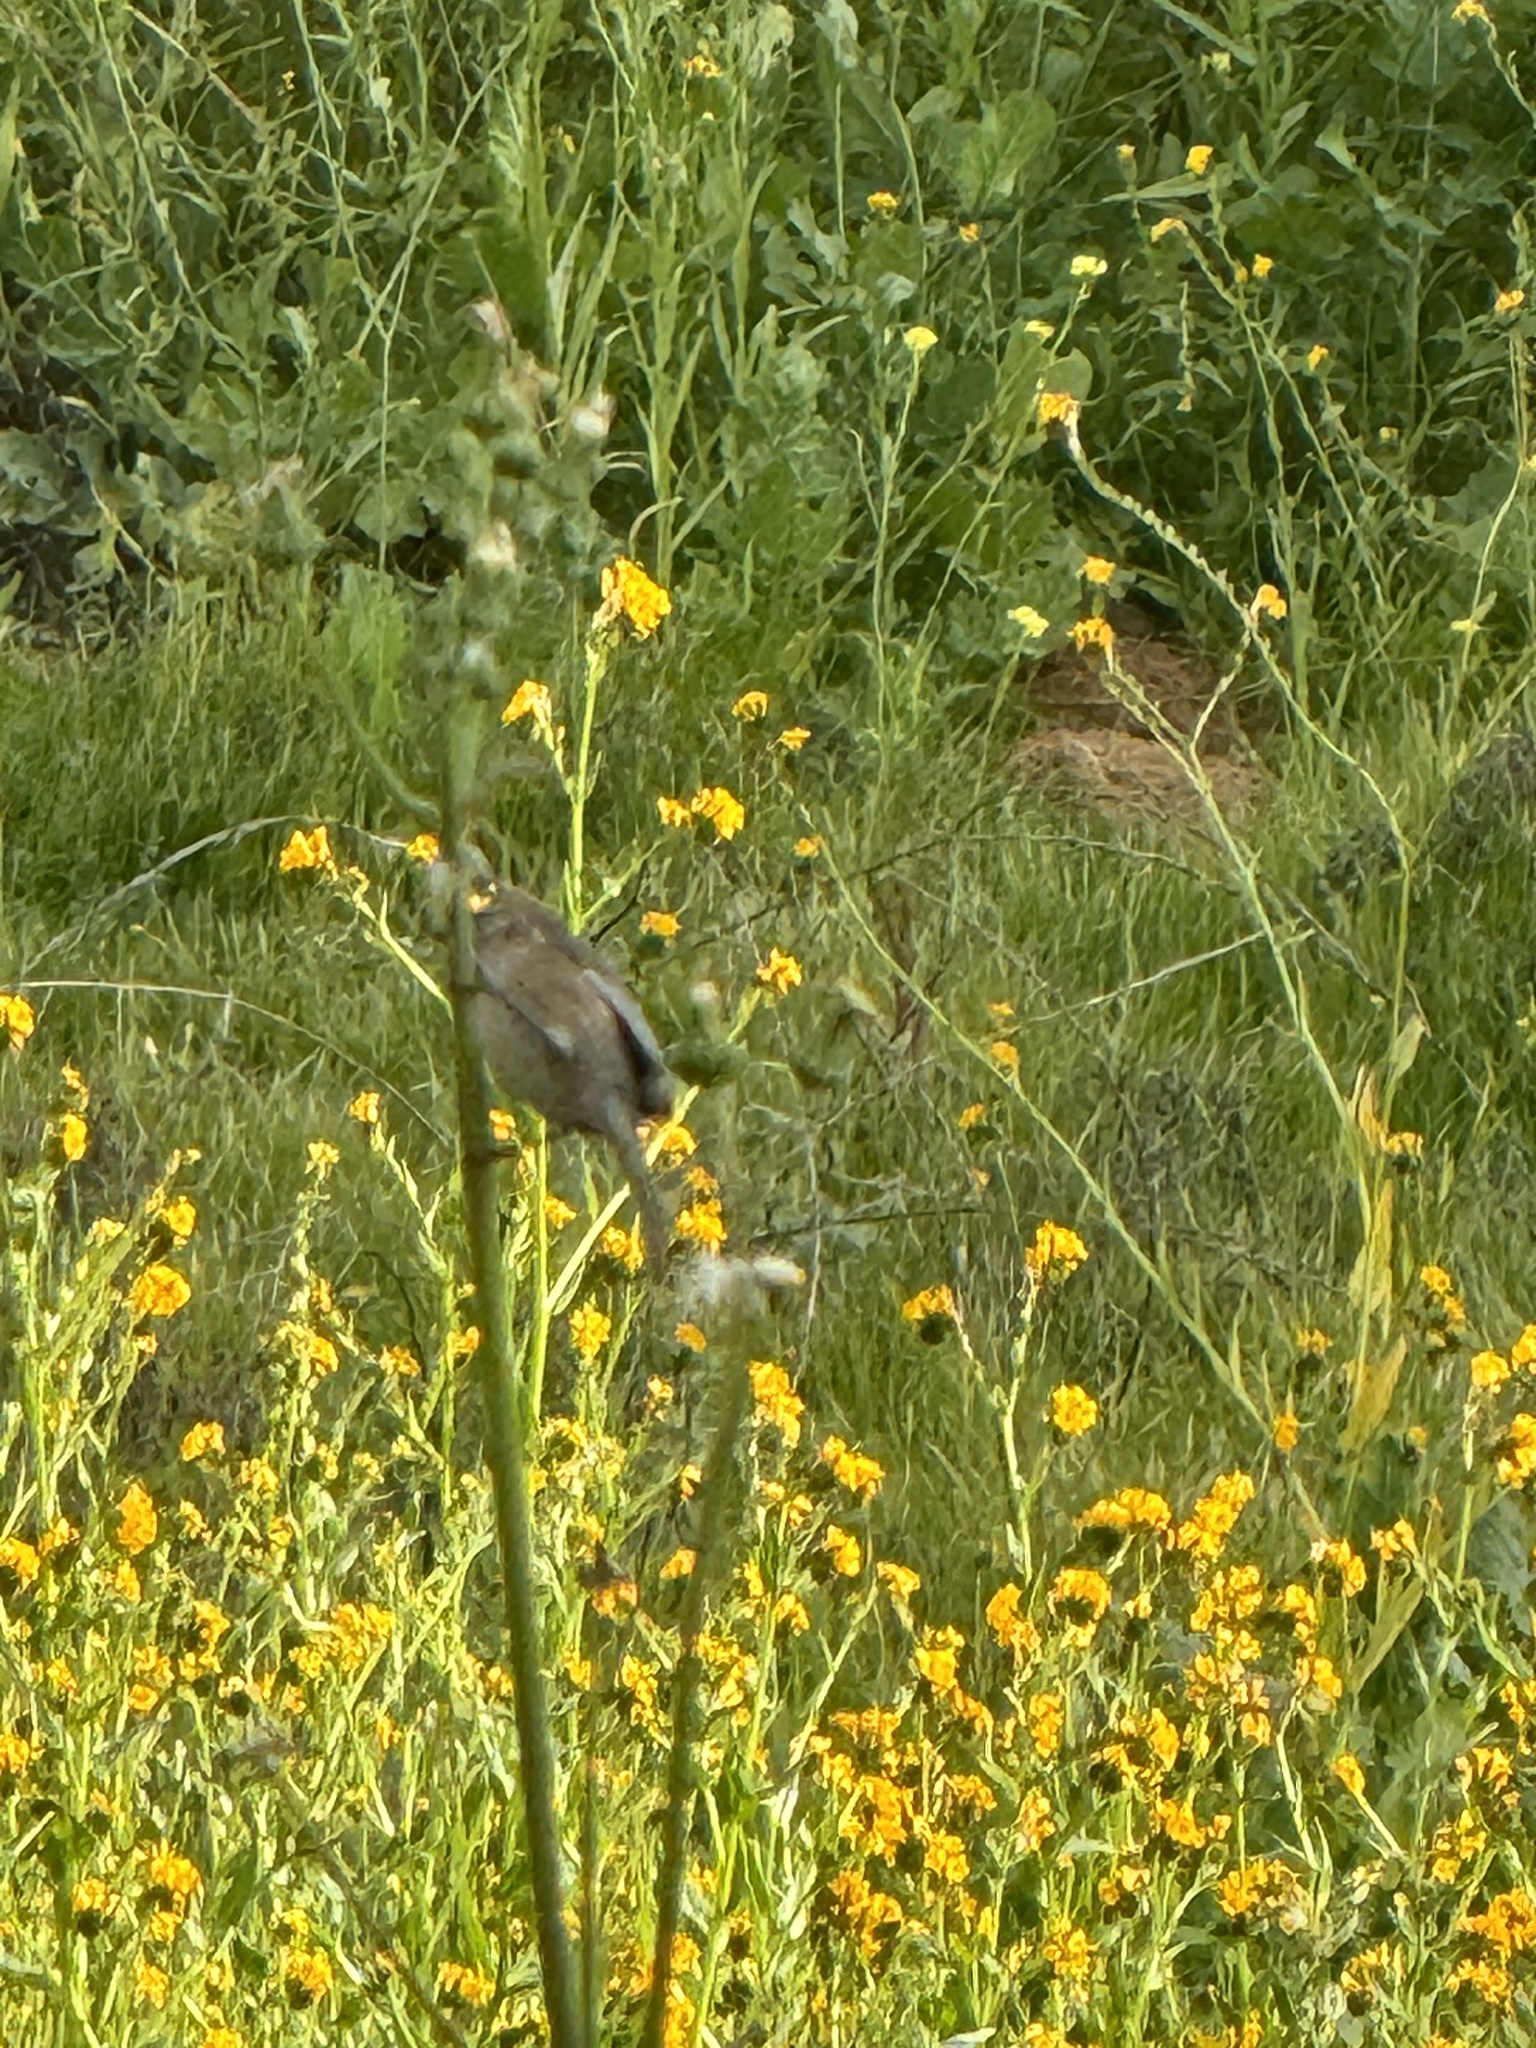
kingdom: Animalia
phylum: Chordata
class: Aves
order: Passeriformes
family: Aegithalidae
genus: Psaltriparus
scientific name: Psaltriparus minimus
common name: American bushtit
